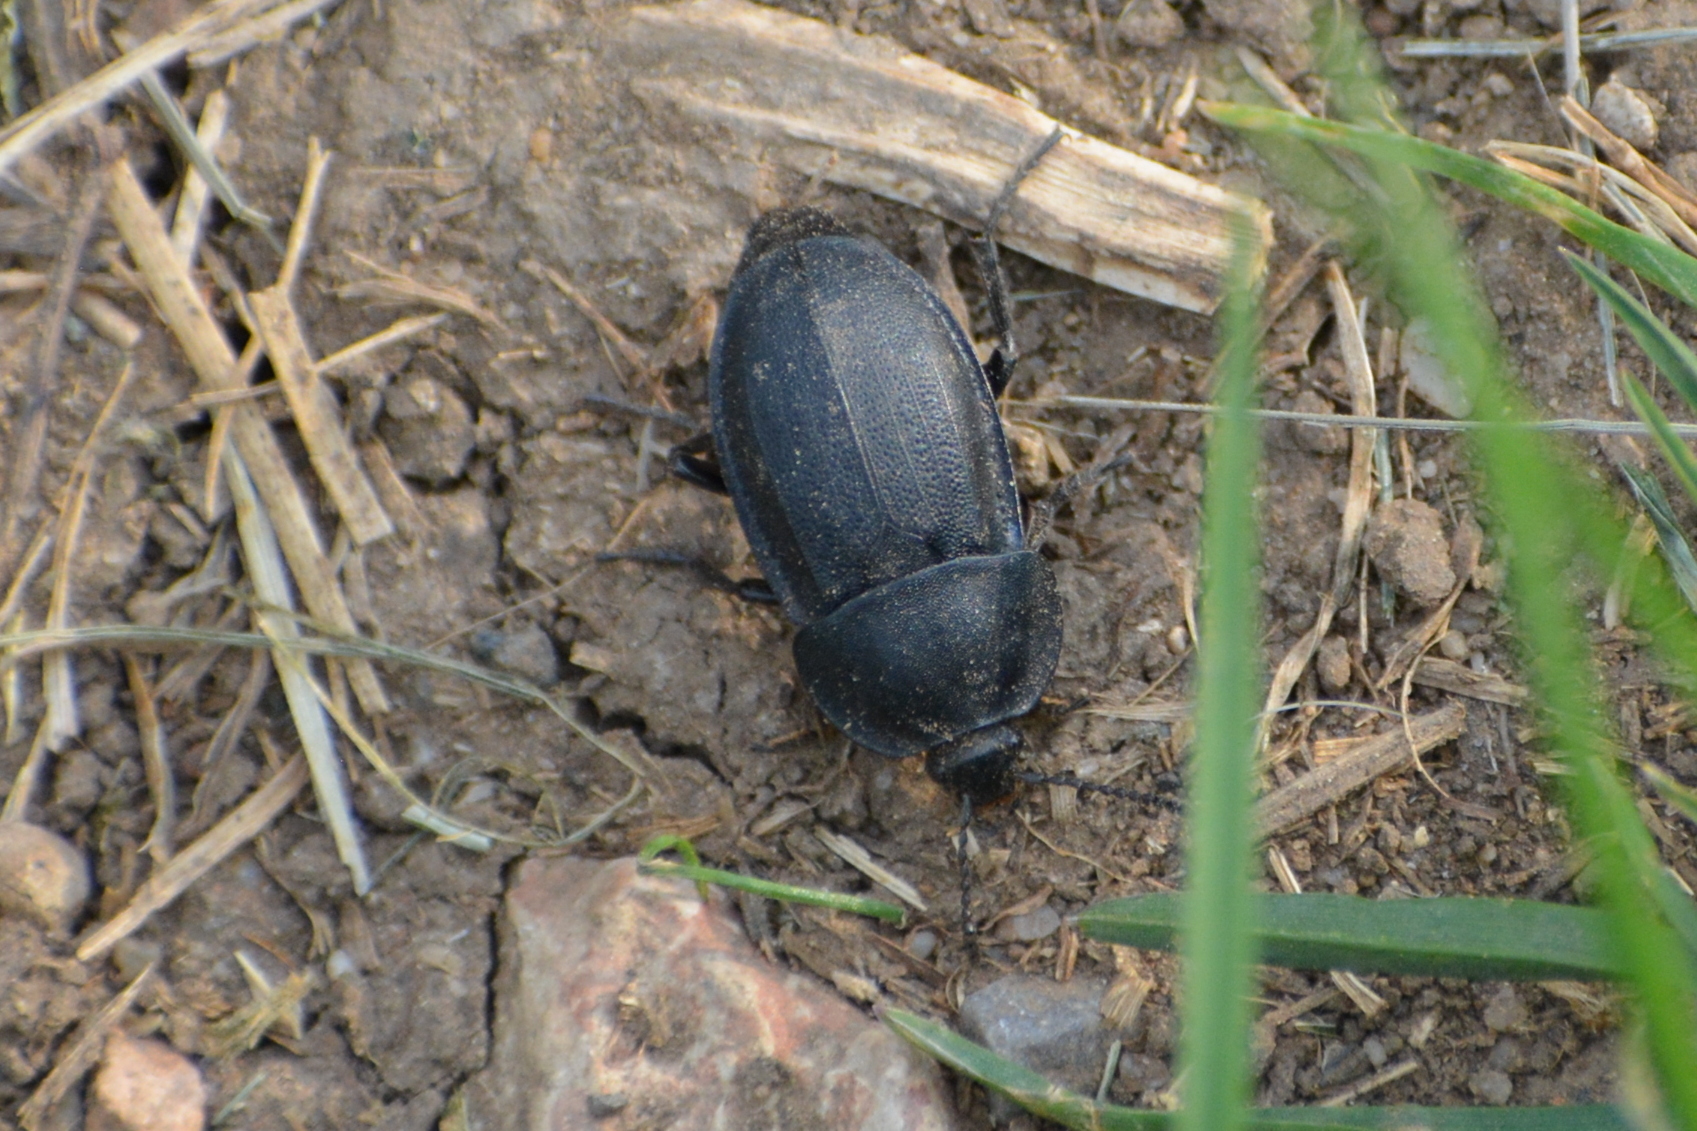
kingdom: Animalia
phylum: Arthropoda
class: Insecta
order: Coleoptera
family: Staphylinidae
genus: Silpha
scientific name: Silpha obscura
